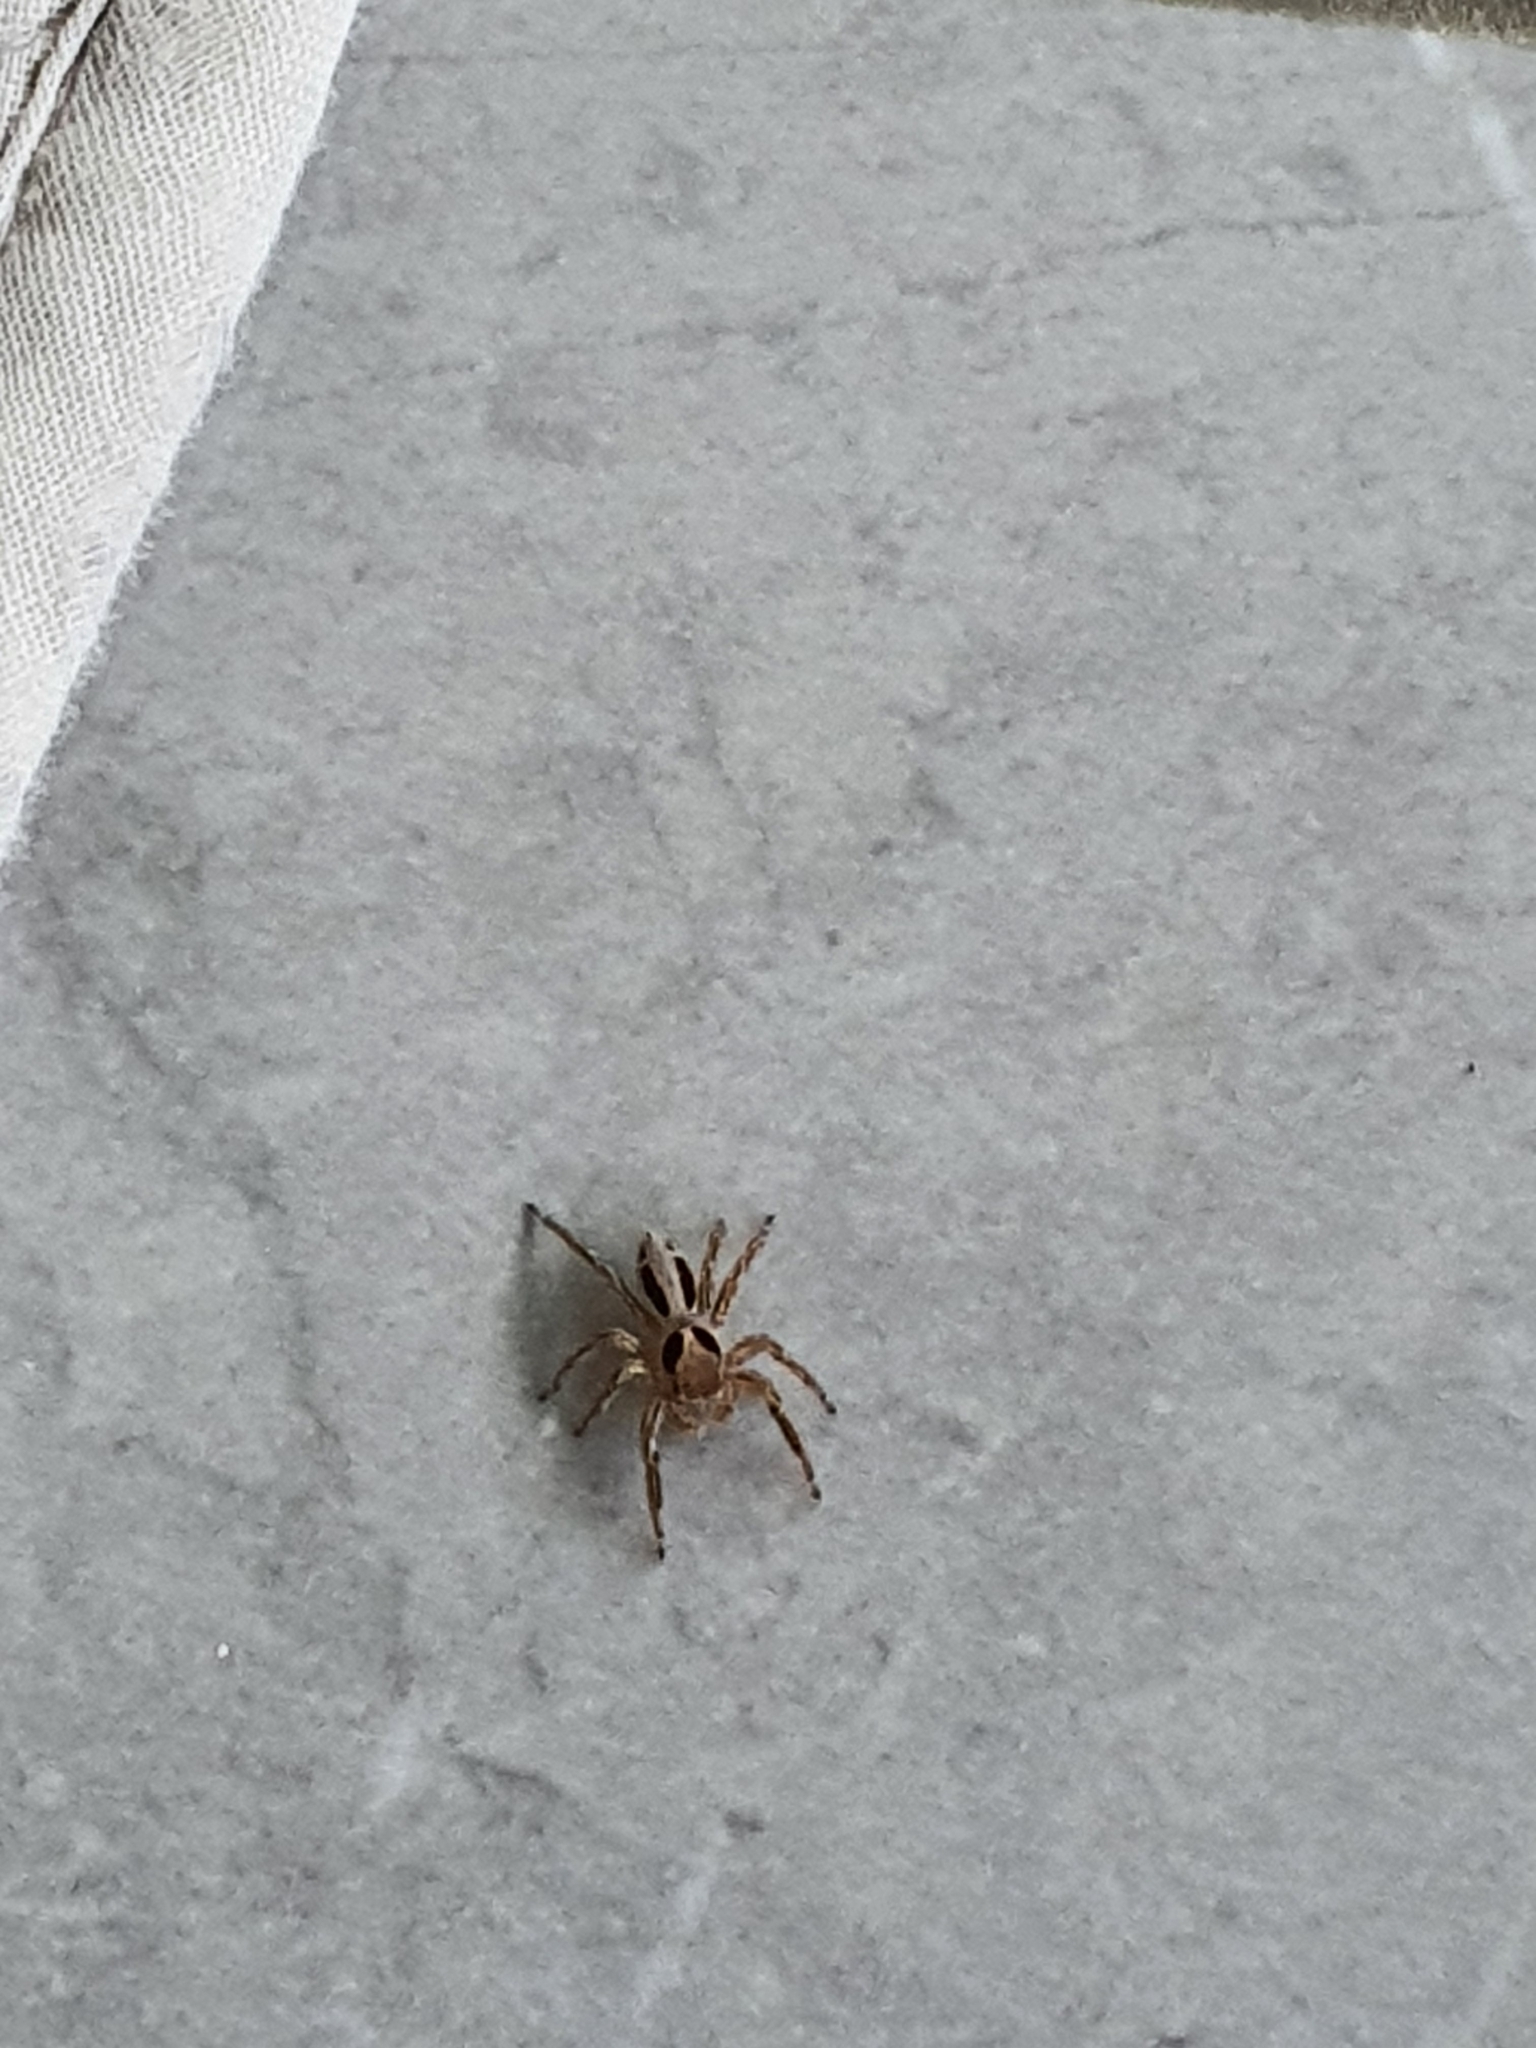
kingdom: Animalia
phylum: Arthropoda
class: Arachnida
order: Araneae
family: Salticidae
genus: Plexippus
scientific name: Plexippus petersi
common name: Jumping spider
